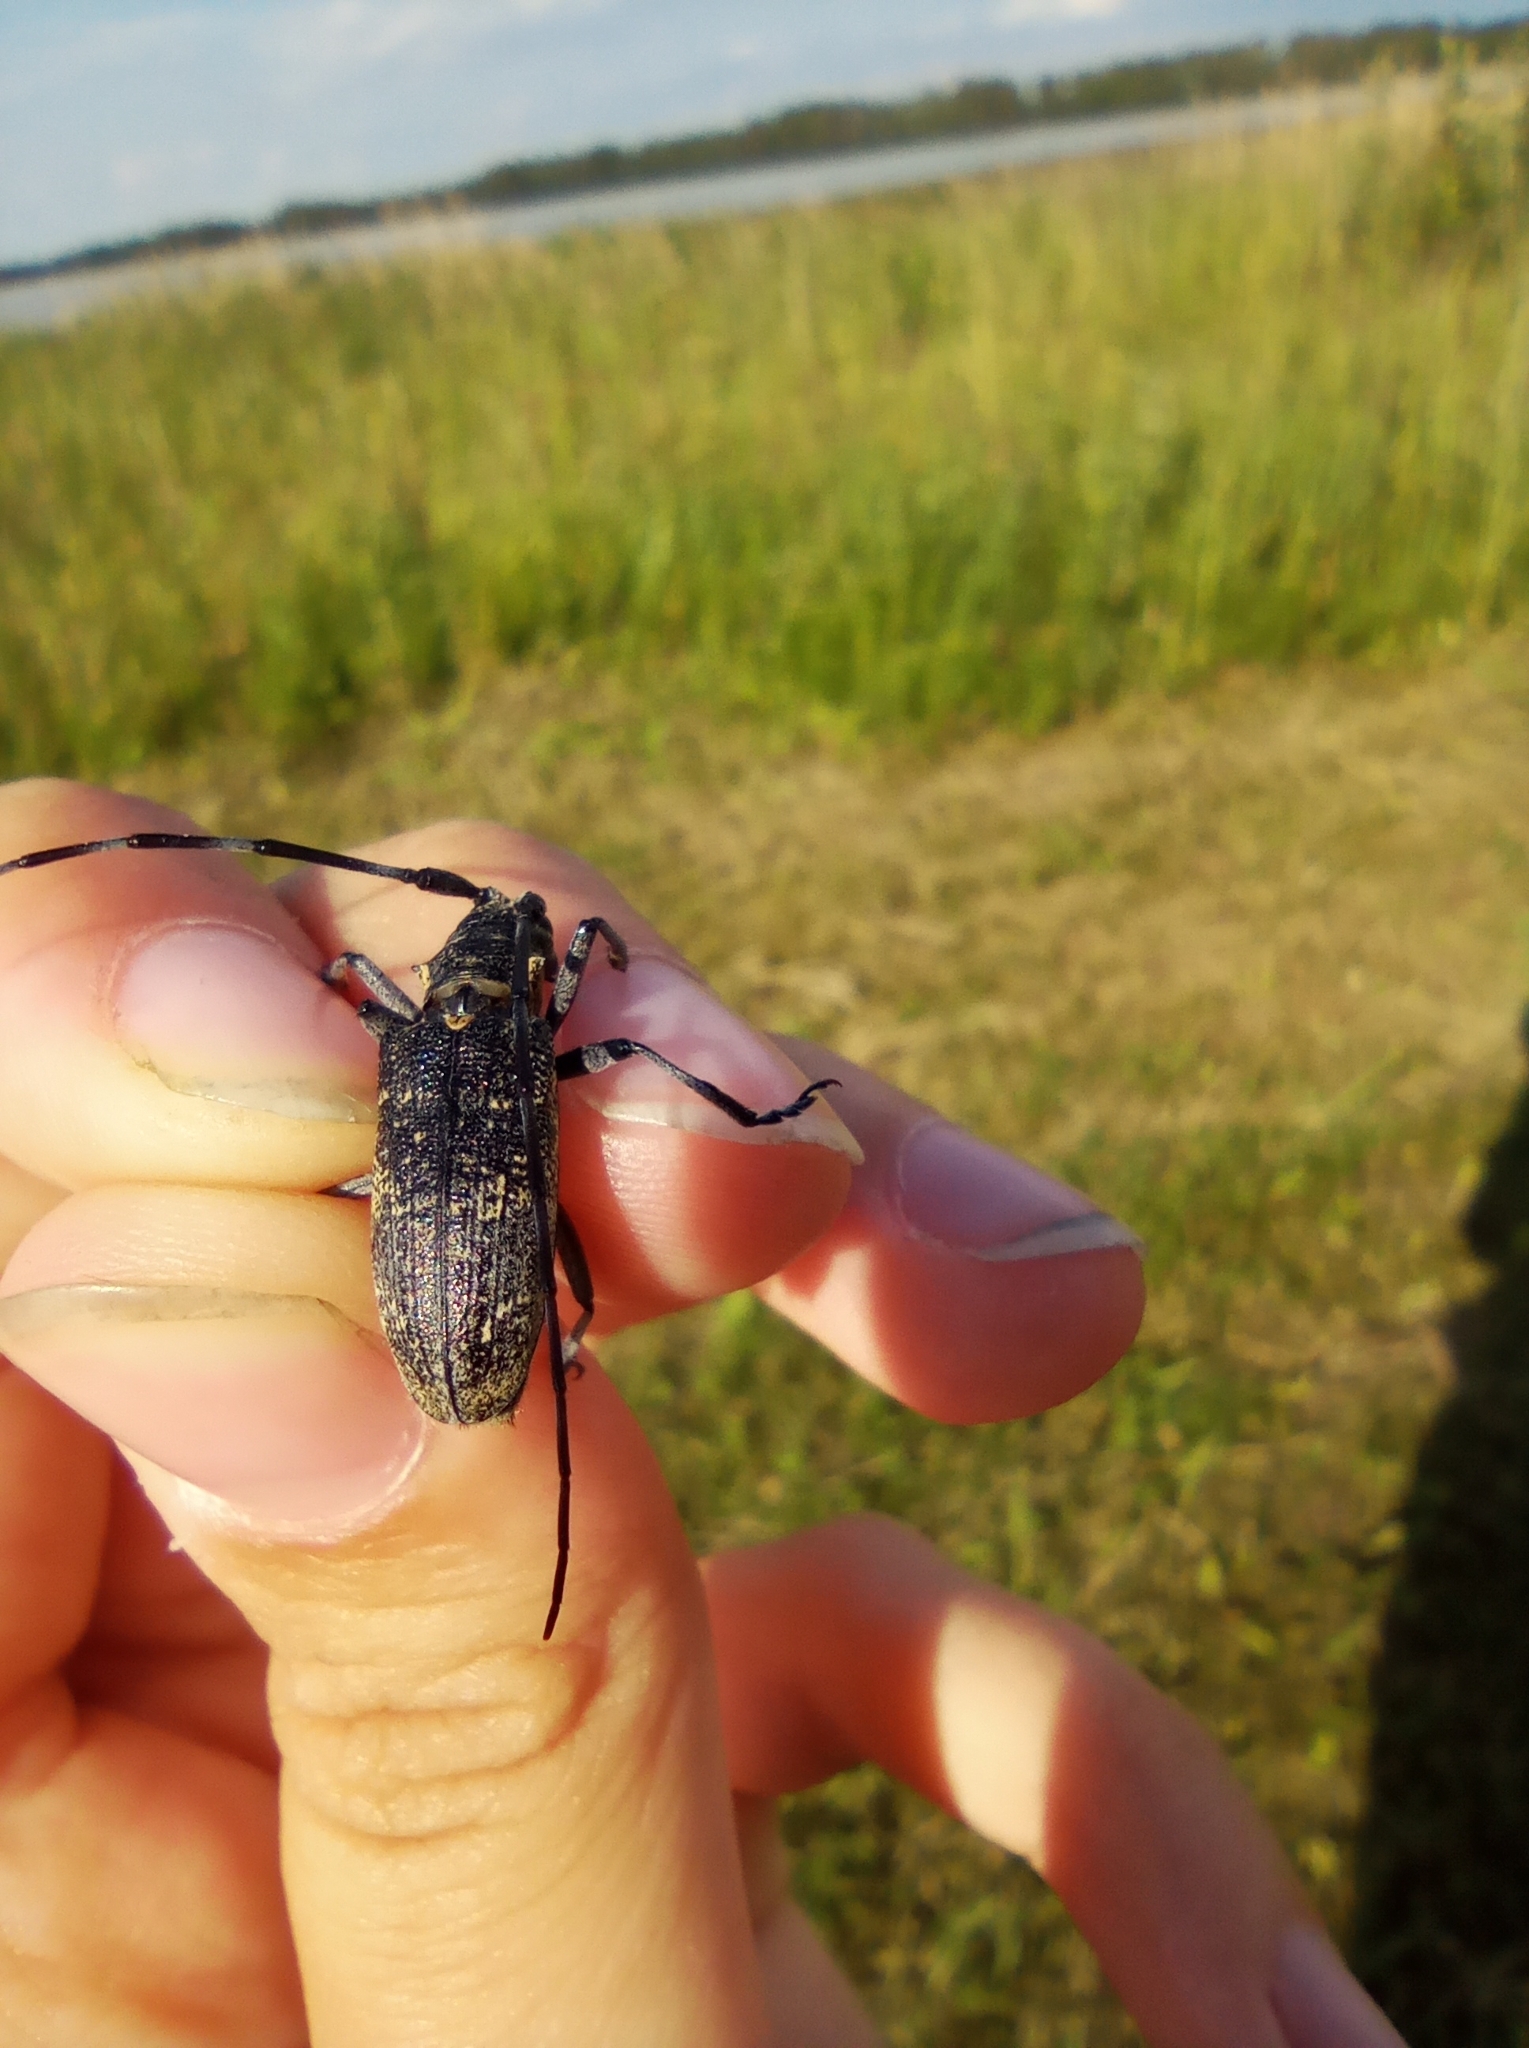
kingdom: Animalia
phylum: Arthropoda
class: Insecta
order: Coleoptera
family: Cerambycidae
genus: Monochamus
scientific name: Monochamus galloprovincialis
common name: Pine sawyer
